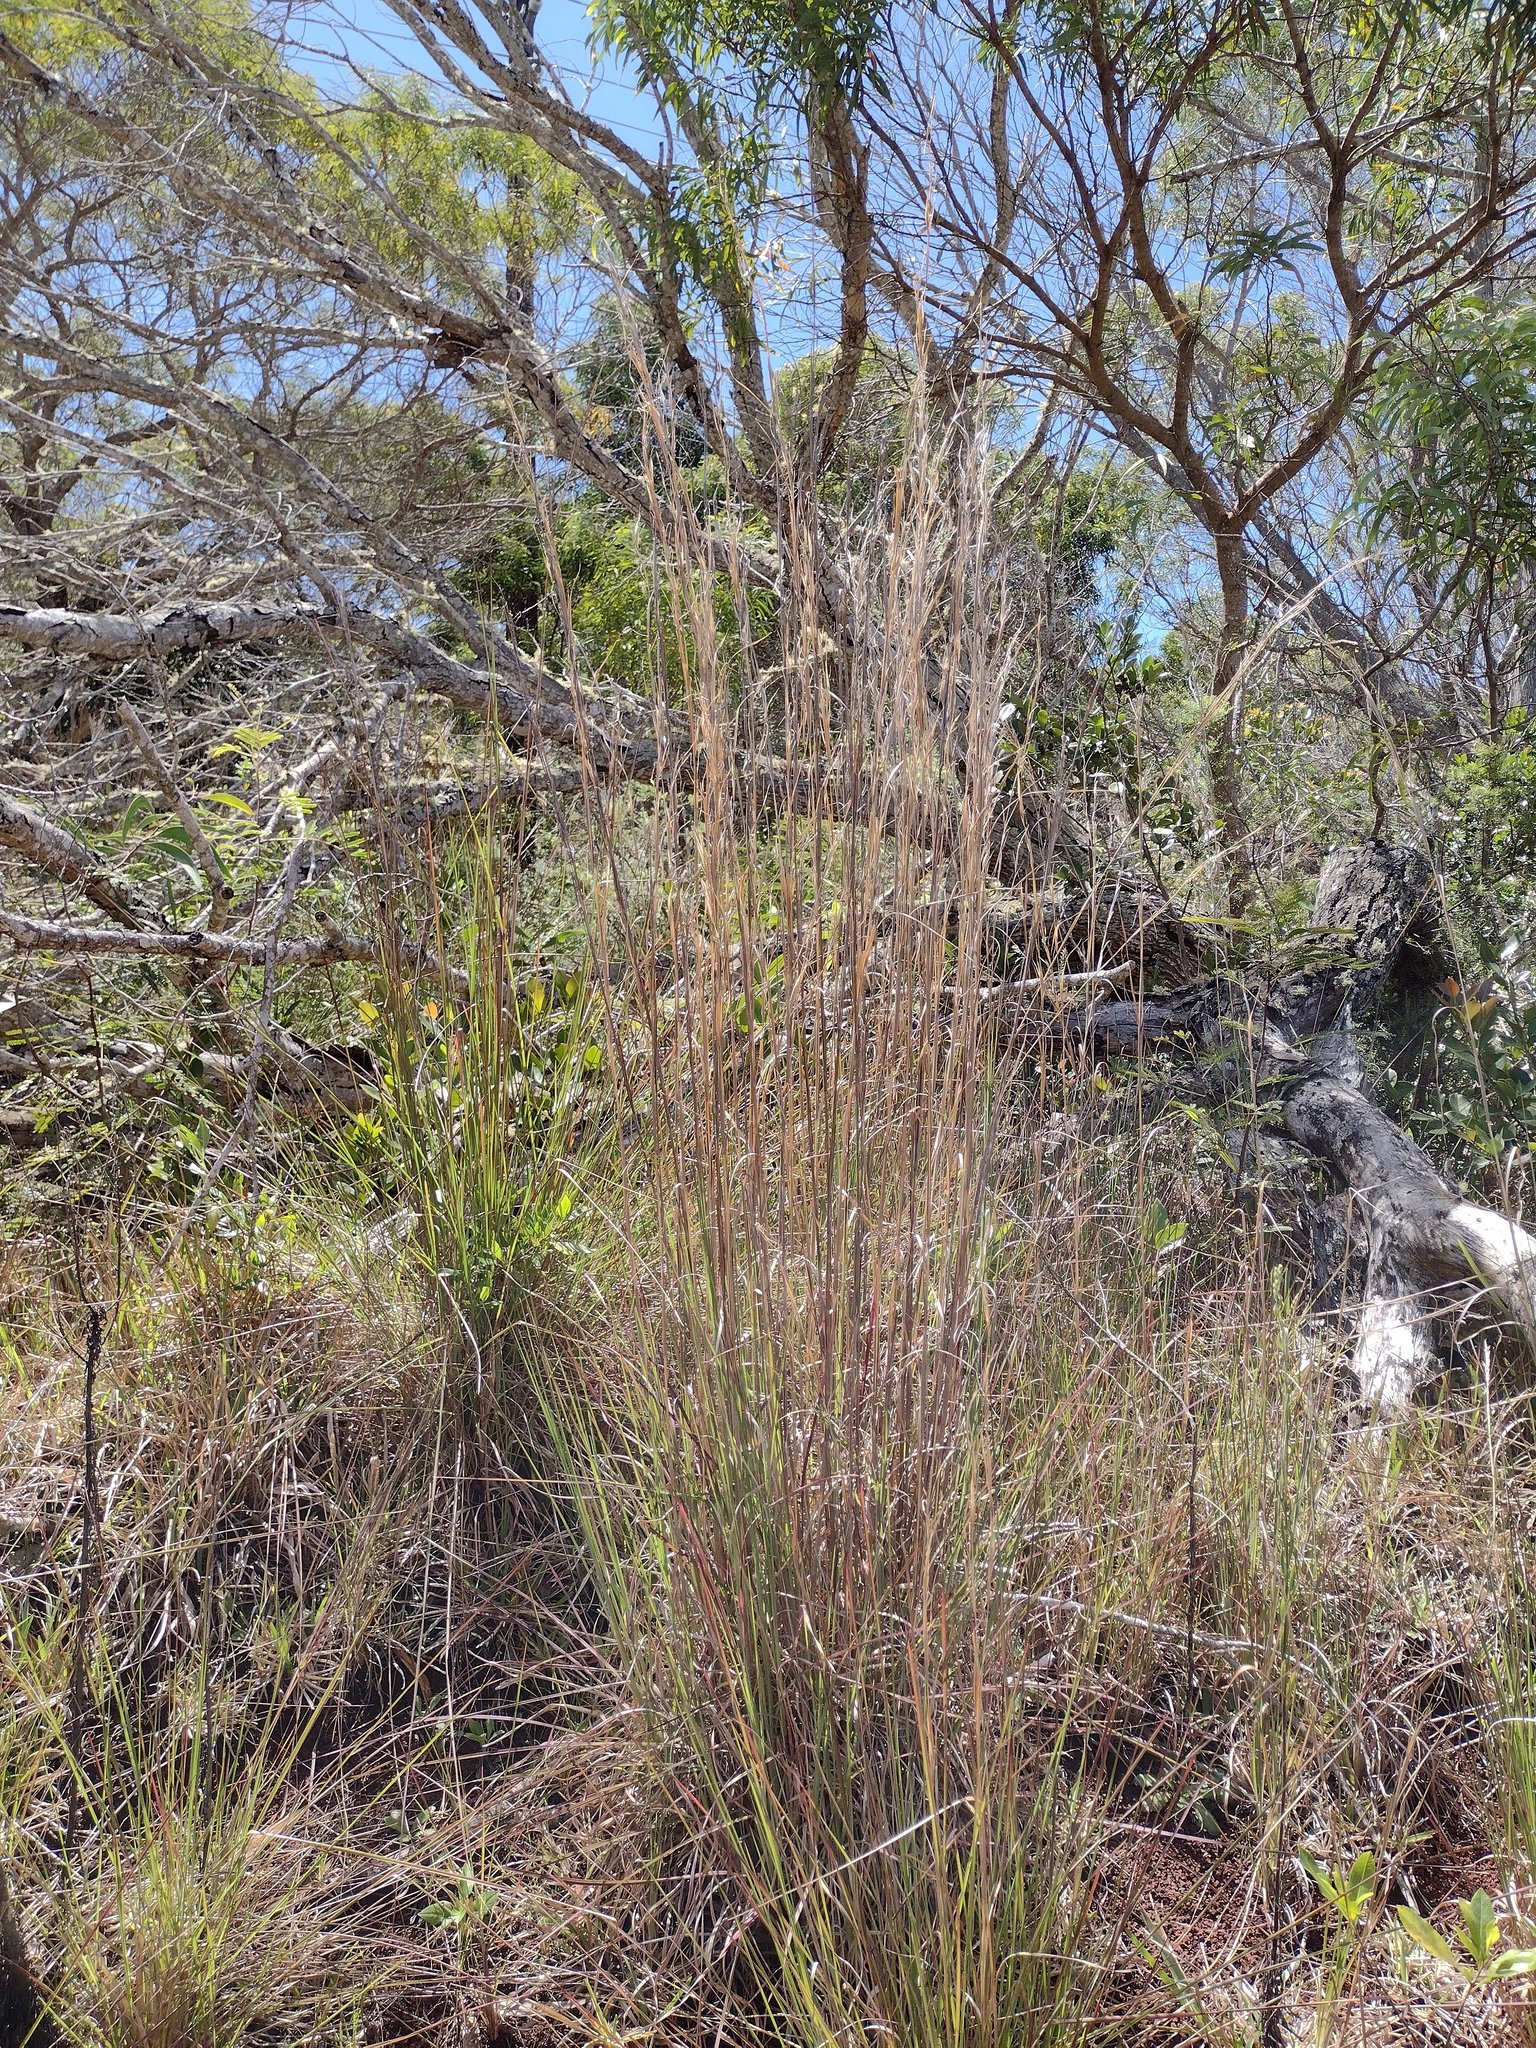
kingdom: Plantae
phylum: Tracheophyta
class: Liliopsida
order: Poales
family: Poaceae
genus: Andropogon
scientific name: Andropogon virginicus
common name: Broomsedge bluestem
